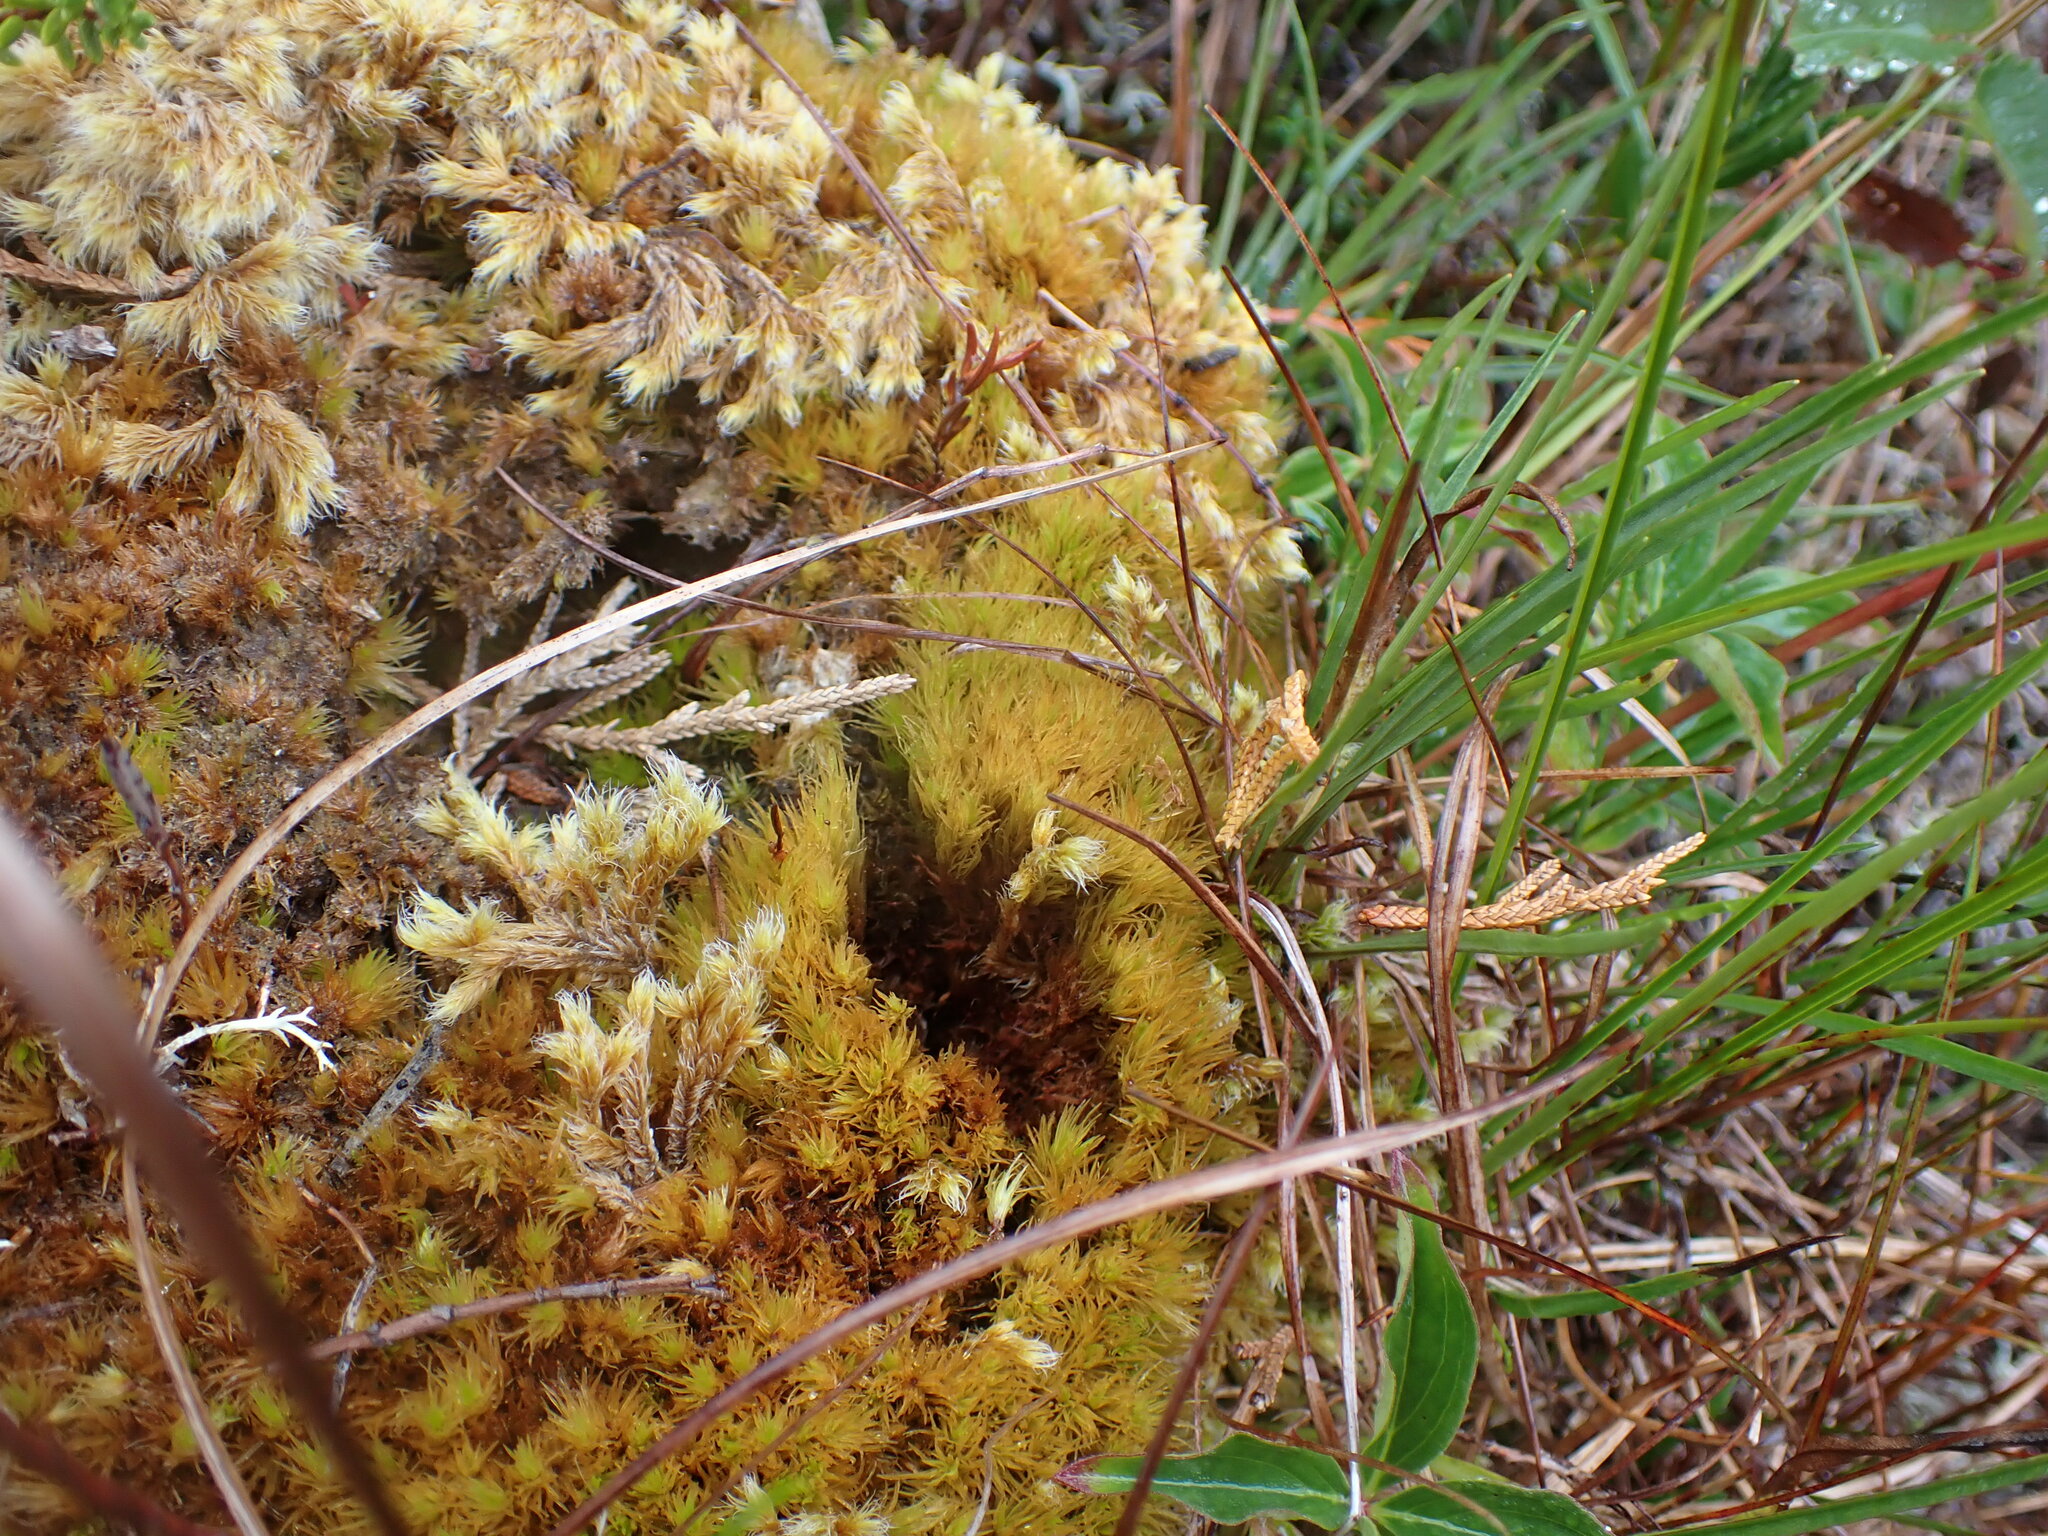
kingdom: Plantae
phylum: Bryophyta
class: Bryopsida
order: Dicranales
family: Dicranaceae
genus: Dicranum
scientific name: Dicranum undulatum
